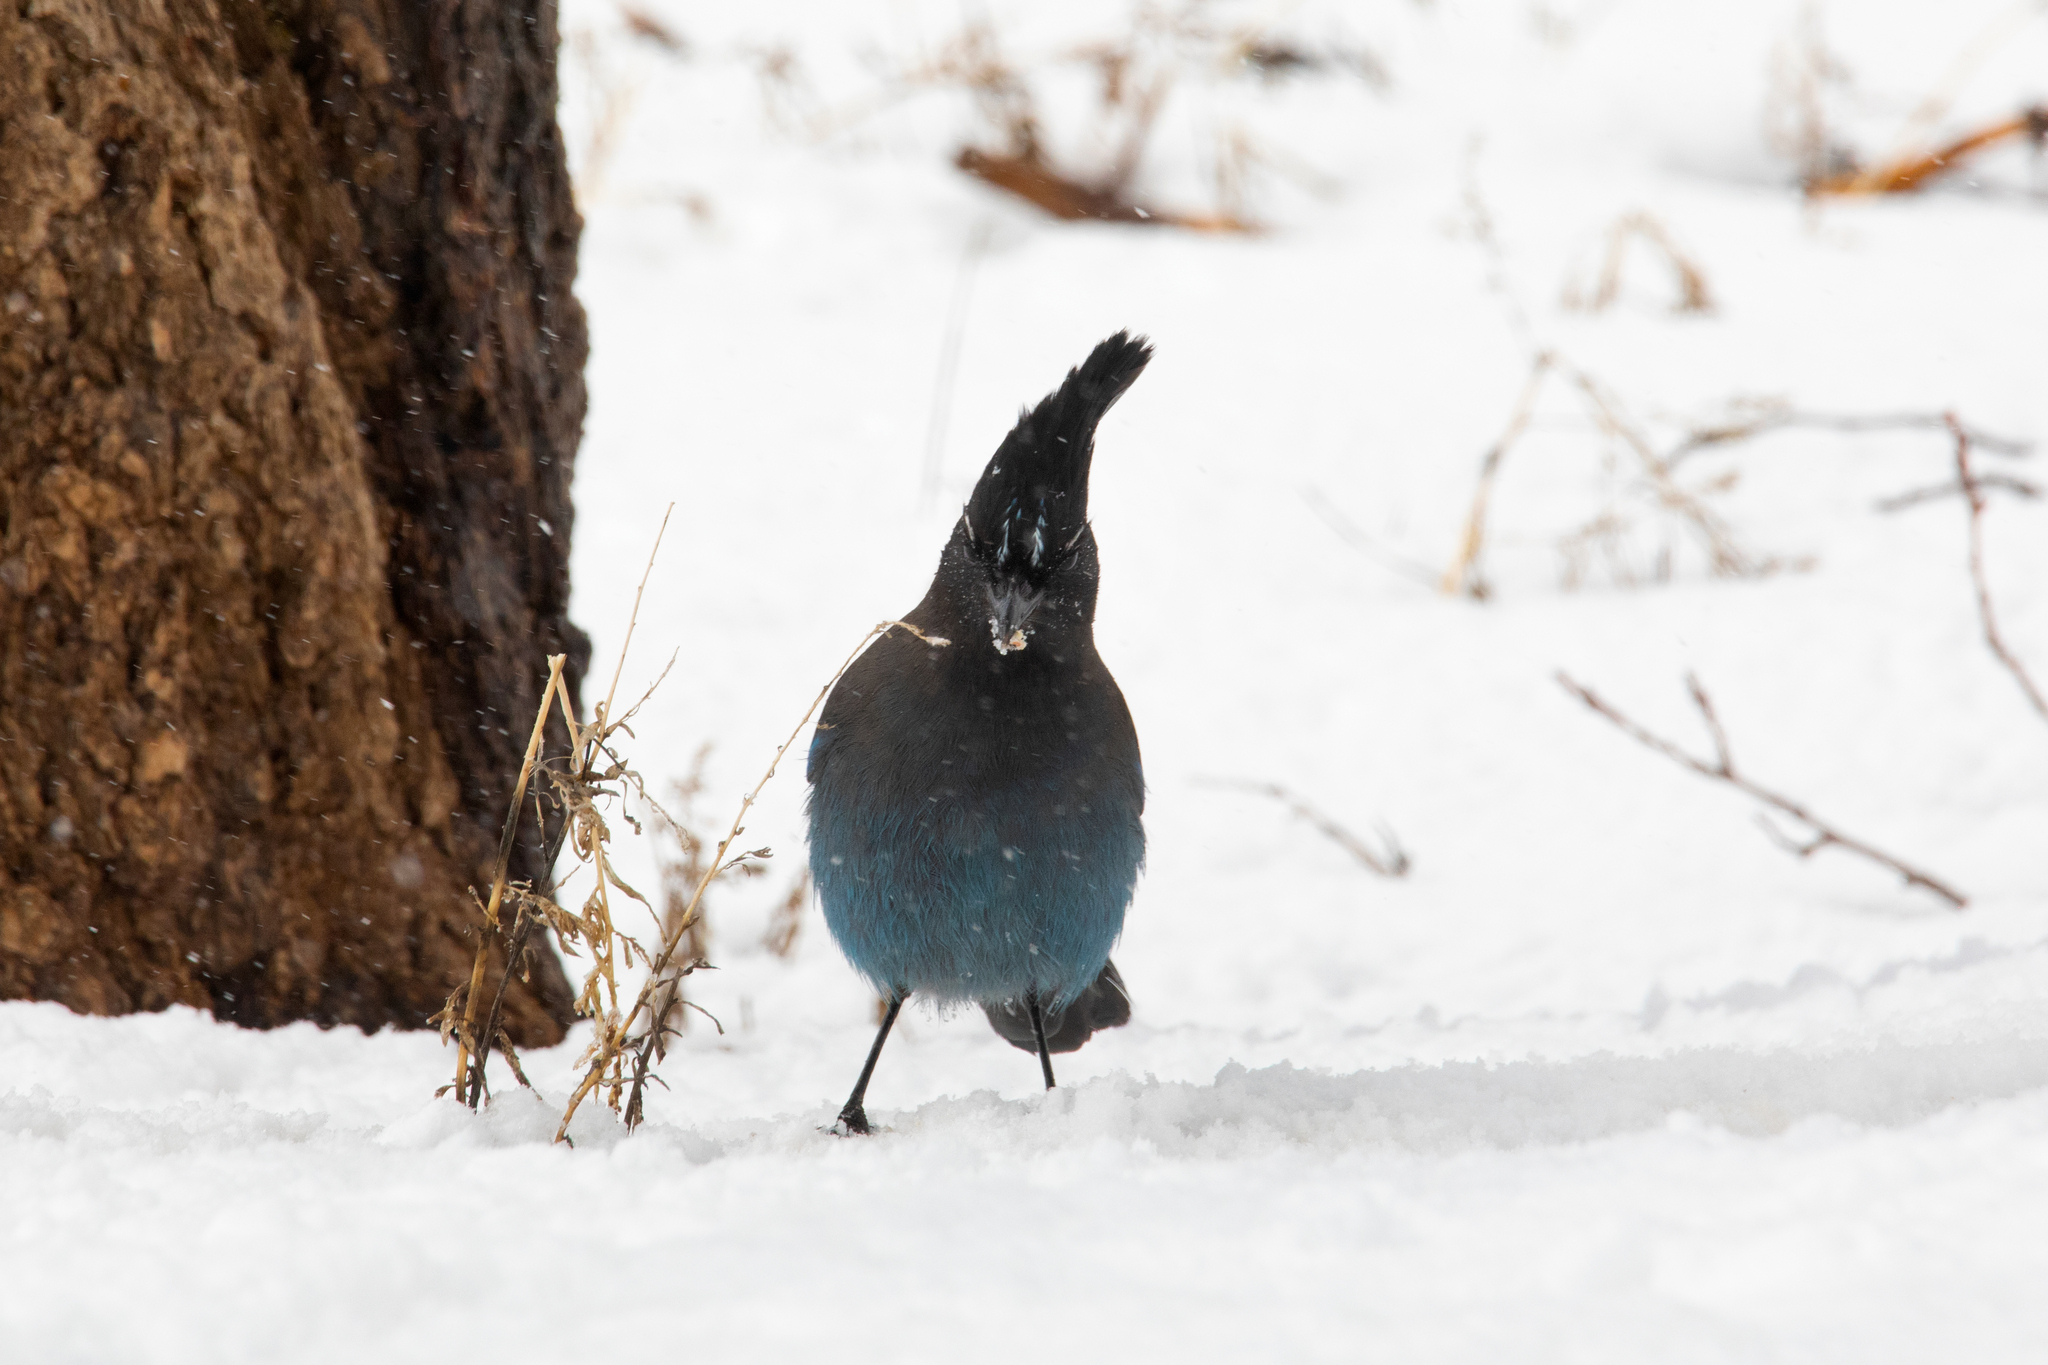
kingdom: Animalia
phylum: Chordata
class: Aves
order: Passeriformes
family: Corvidae
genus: Cyanocitta
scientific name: Cyanocitta stelleri
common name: Steller's jay
